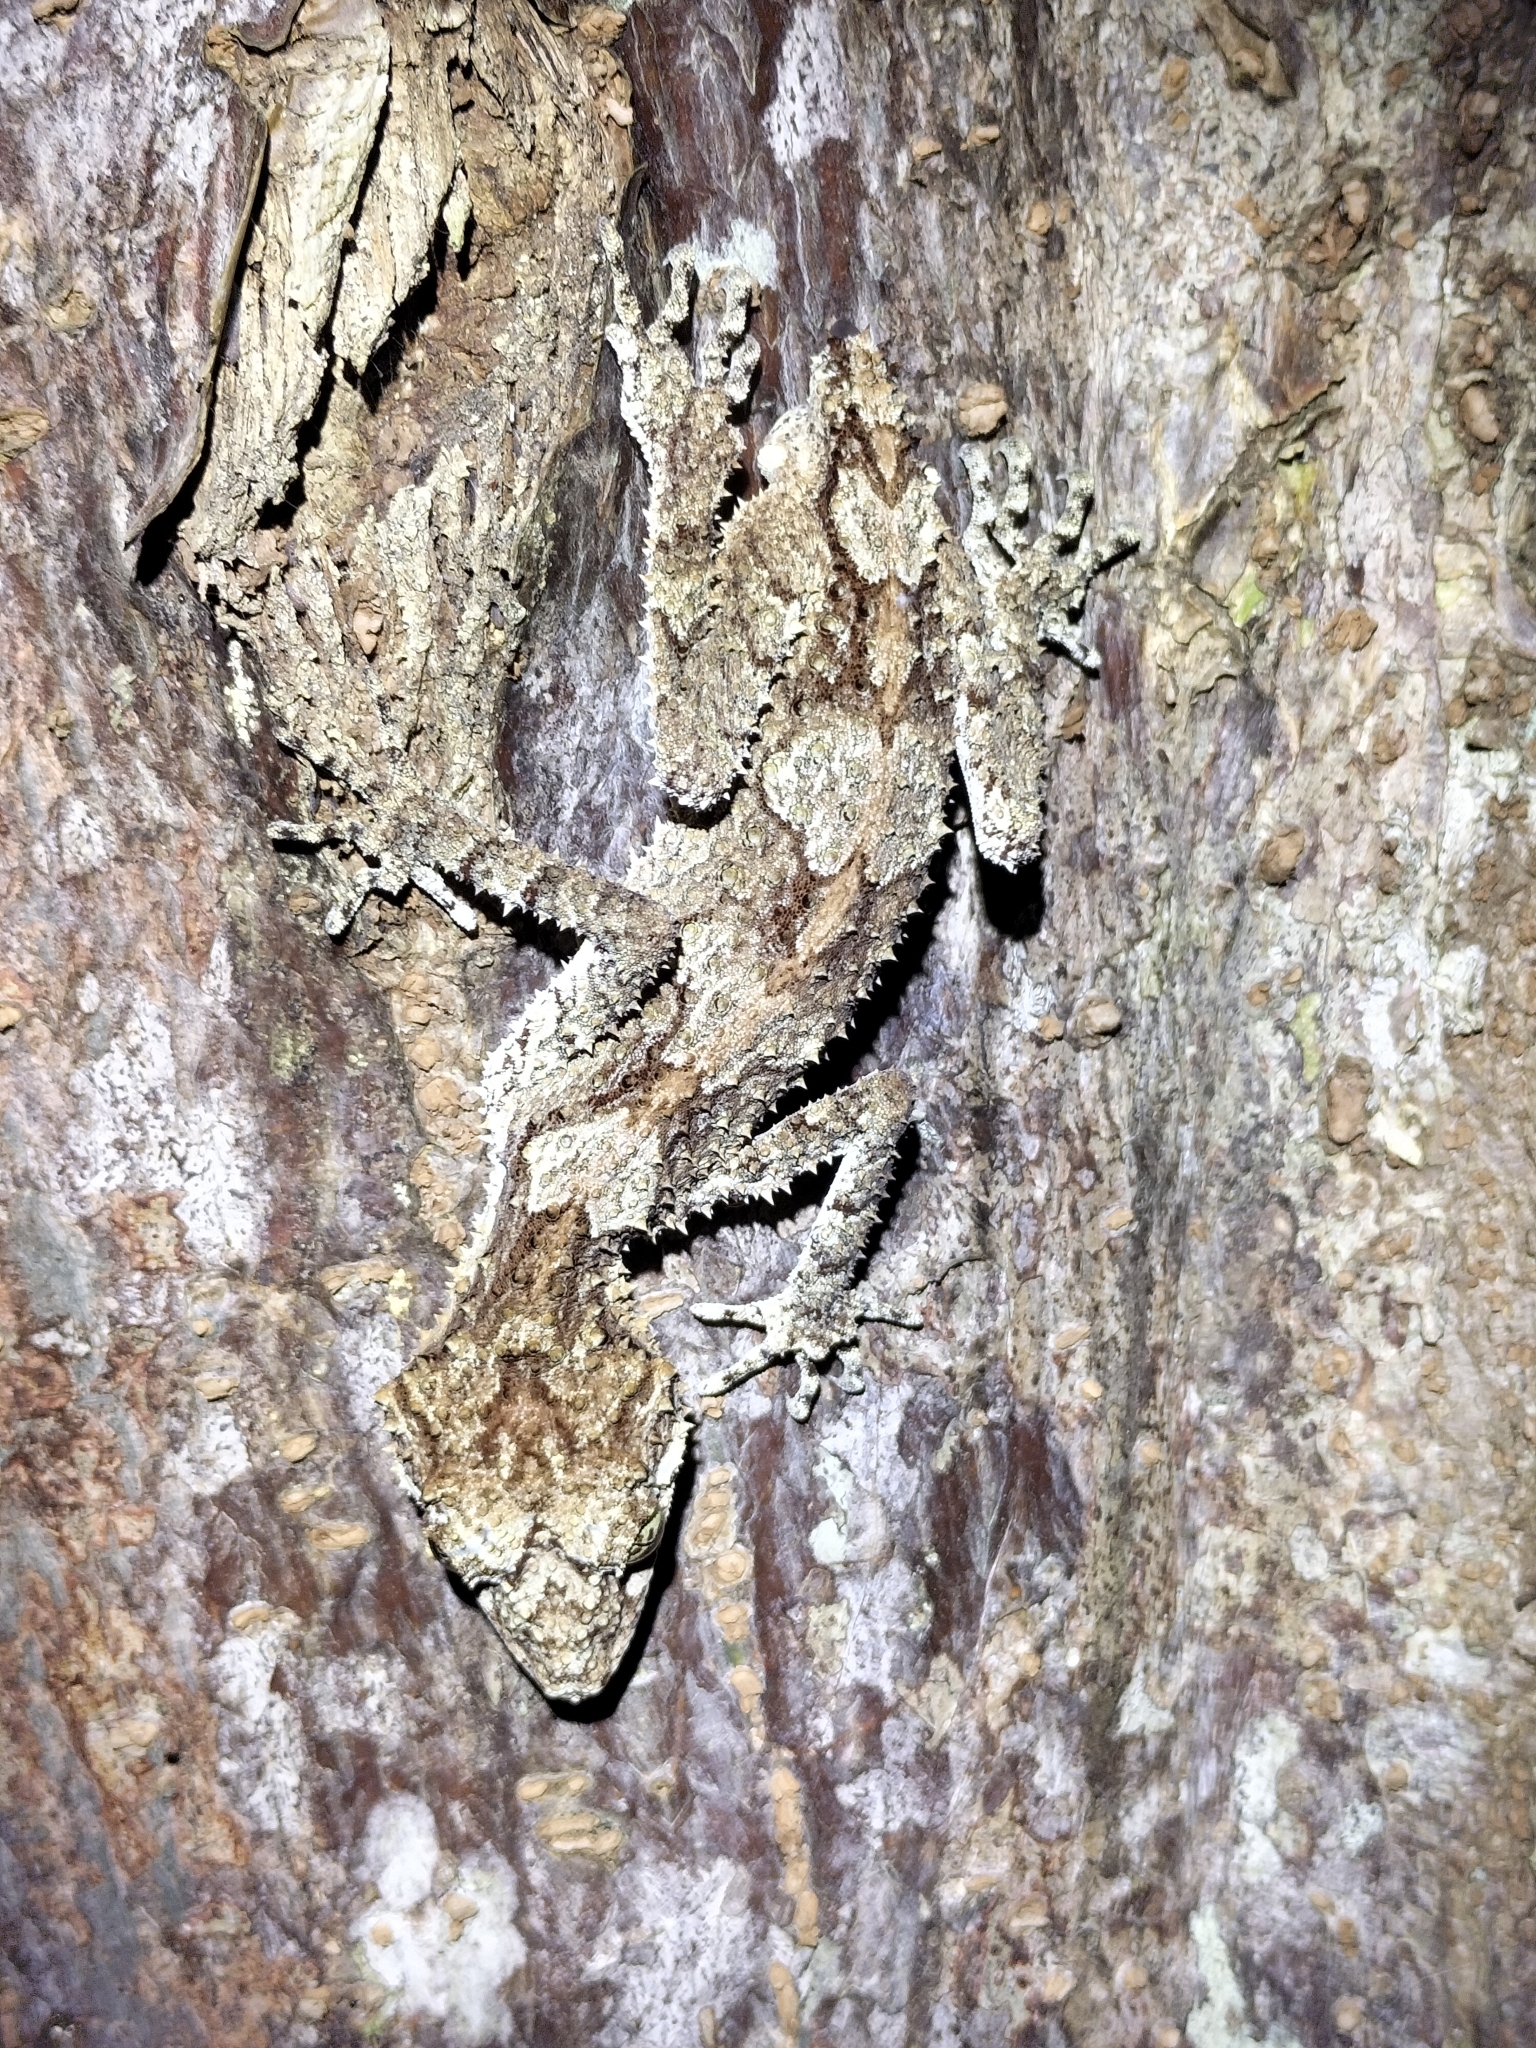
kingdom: Animalia
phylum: Chordata
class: Squamata
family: Carphodactylidae
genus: Saltuarius
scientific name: Saltuarius cornutus
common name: Leaf-tailed gecko
